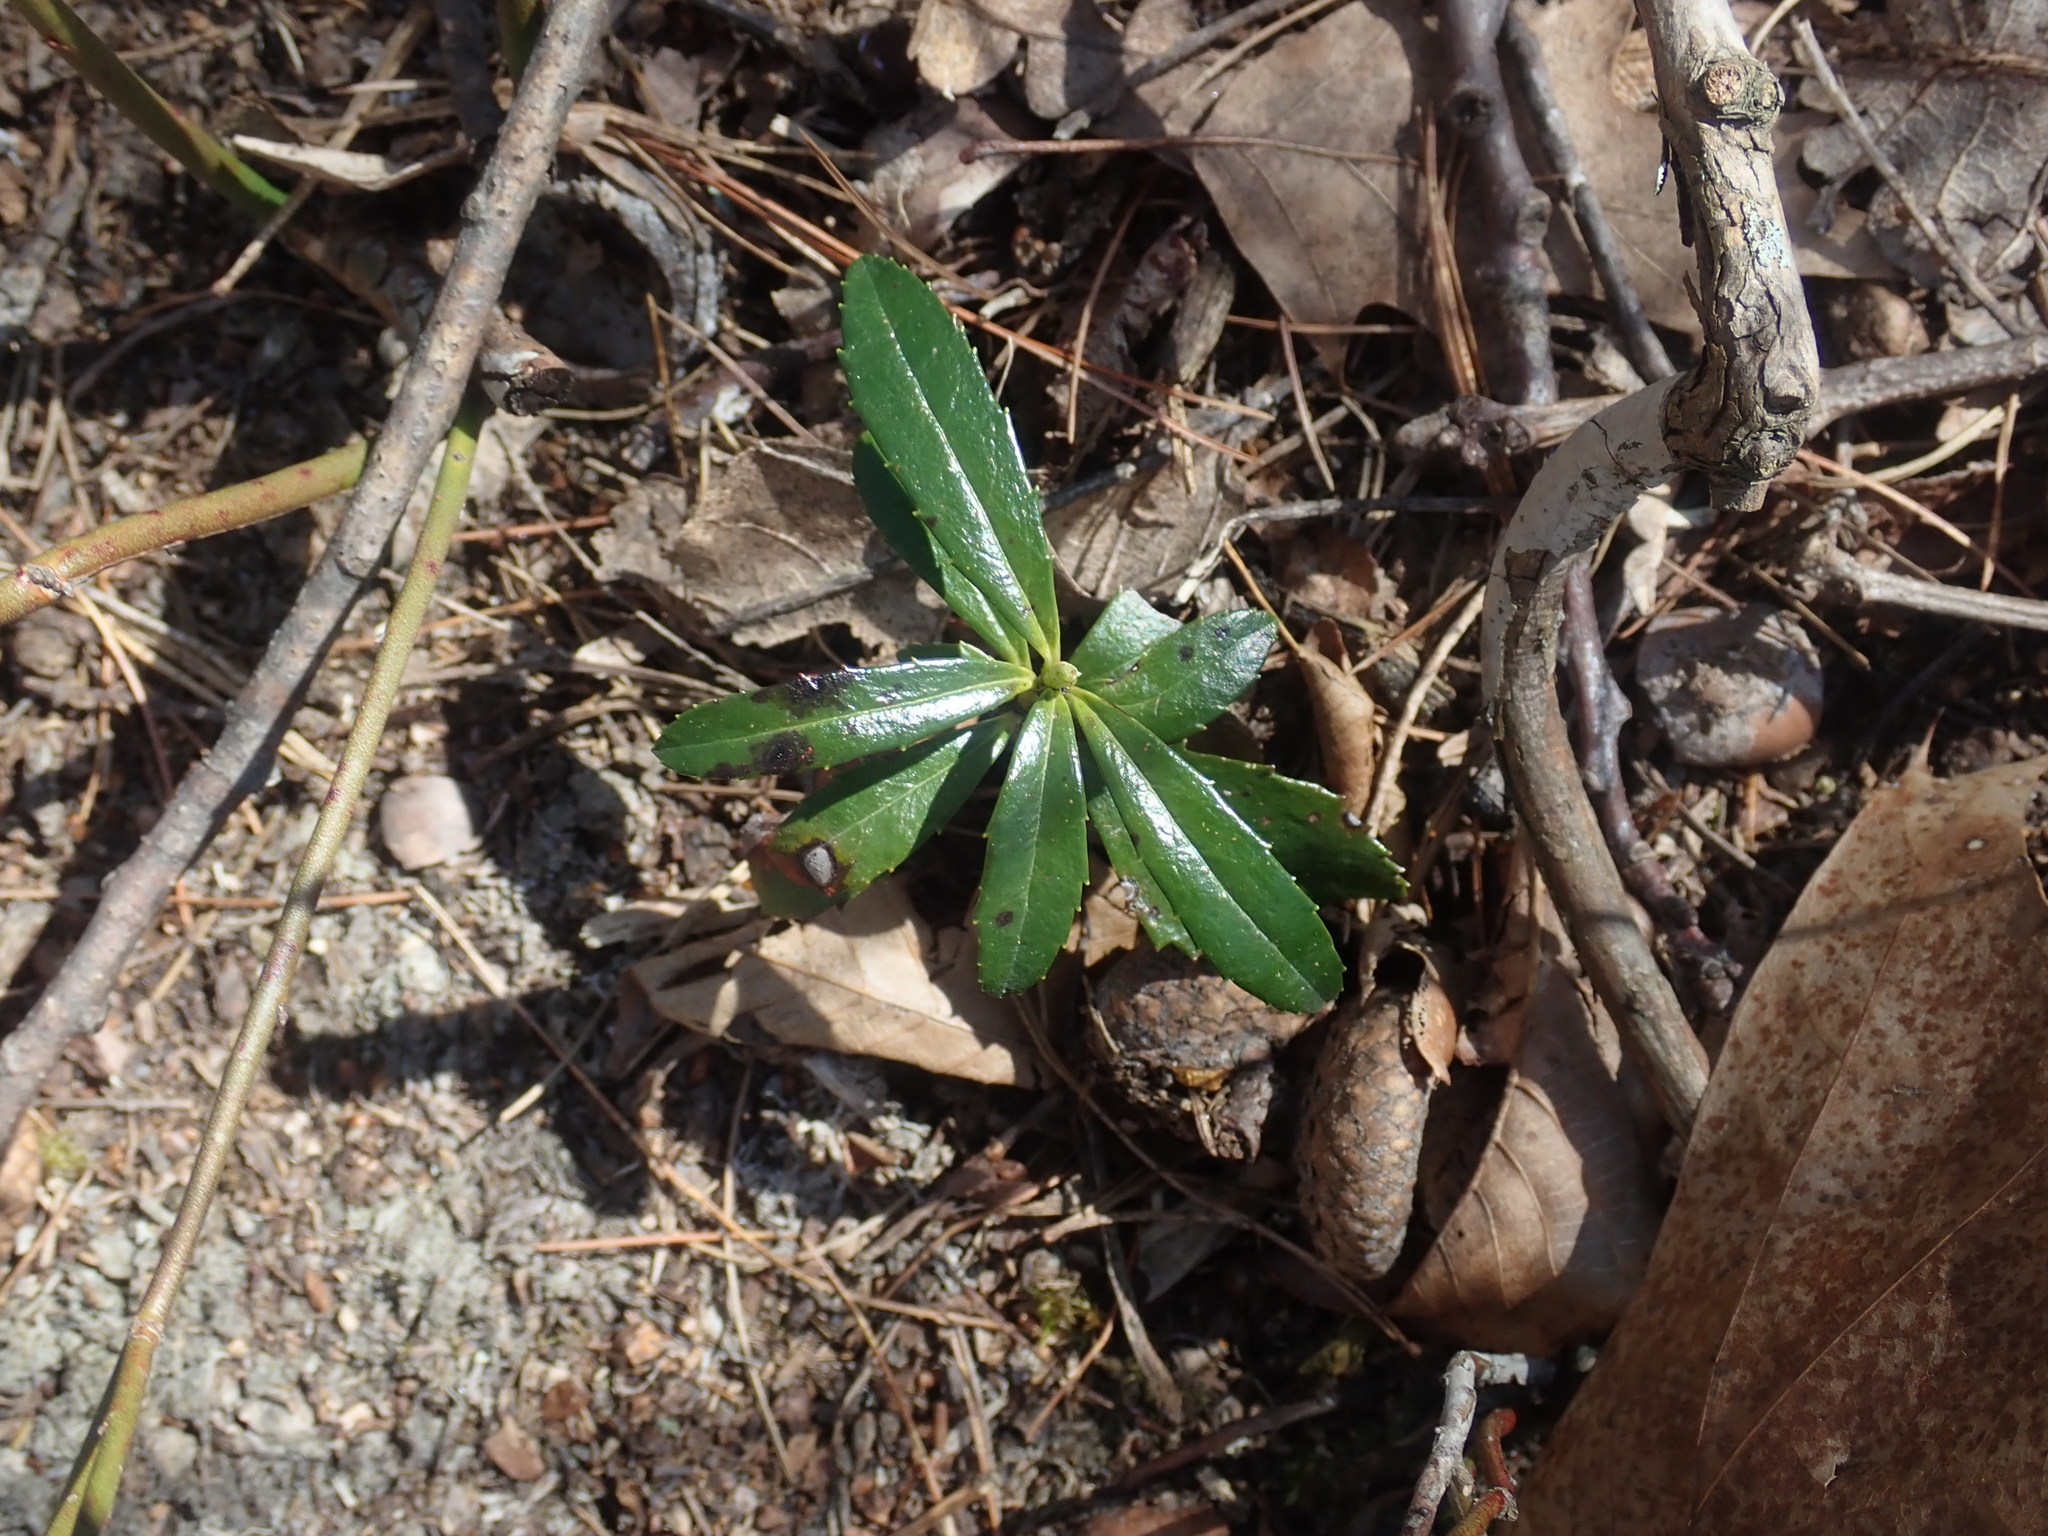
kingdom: Plantae
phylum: Tracheophyta
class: Magnoliopsida
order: Ericales
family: Ericaceae
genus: Chimaphila
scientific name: Chimaphila umbellata
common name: Pipsissewa
